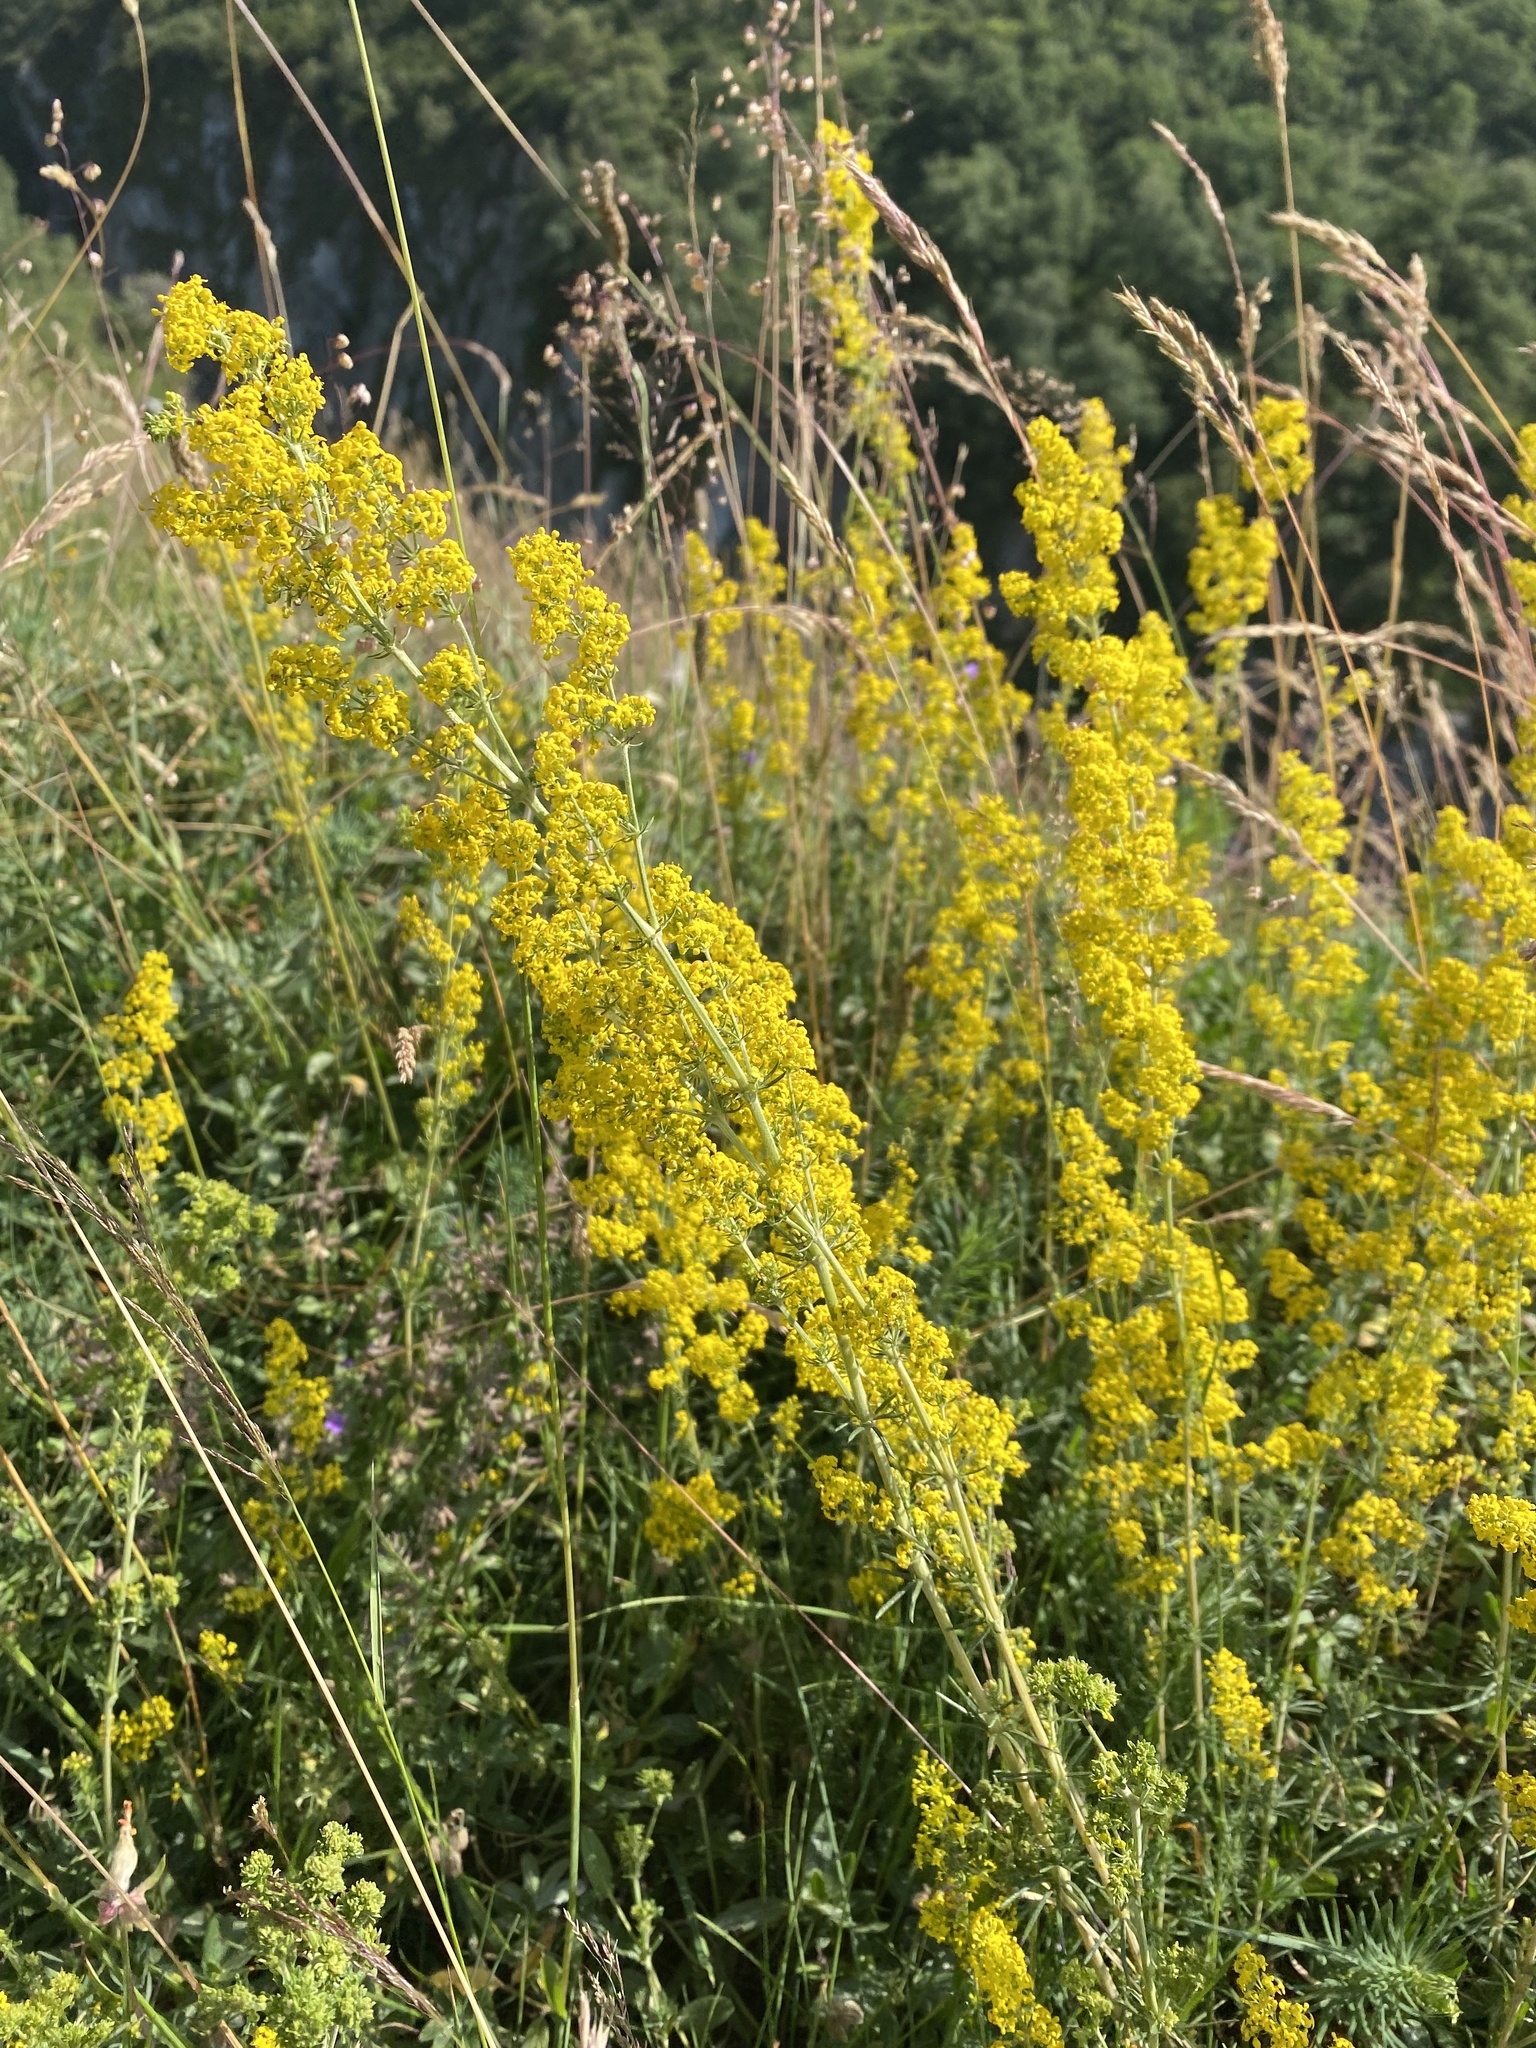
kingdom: Plantae
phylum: Tracheophyta
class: Magnoliopsida
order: Gentianales
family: Rubiaceae
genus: Galium
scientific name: Galium verum
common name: Lady's bedstraw
